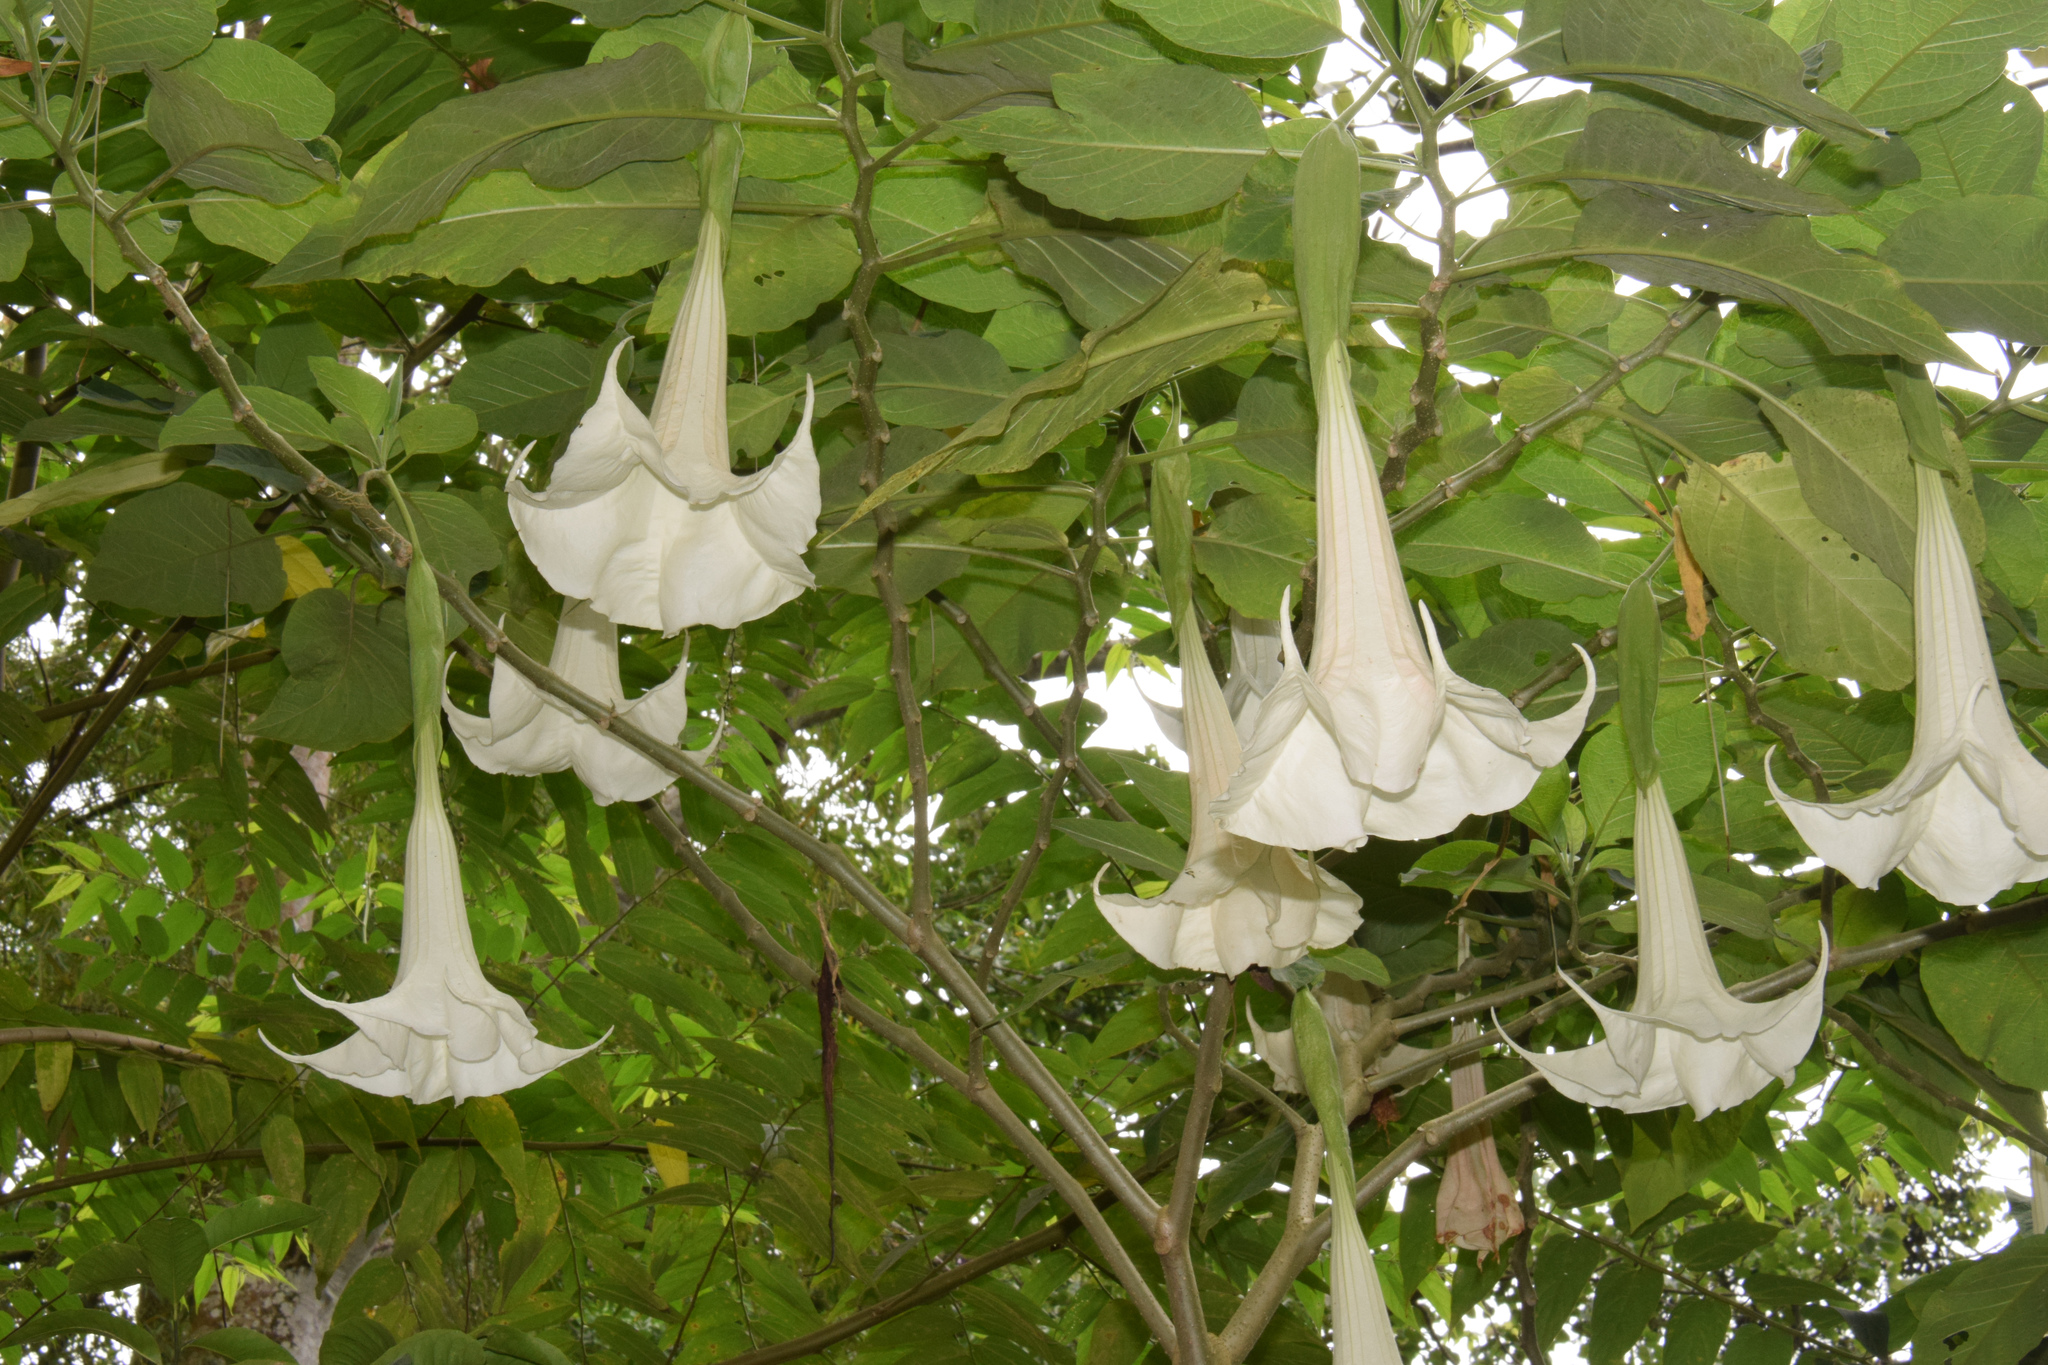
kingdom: Plantae
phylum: Tracheophyta
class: Magnoliopsida
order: Solanales
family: Solanaceae
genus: Brugmansia
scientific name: Brugmansia arborea
